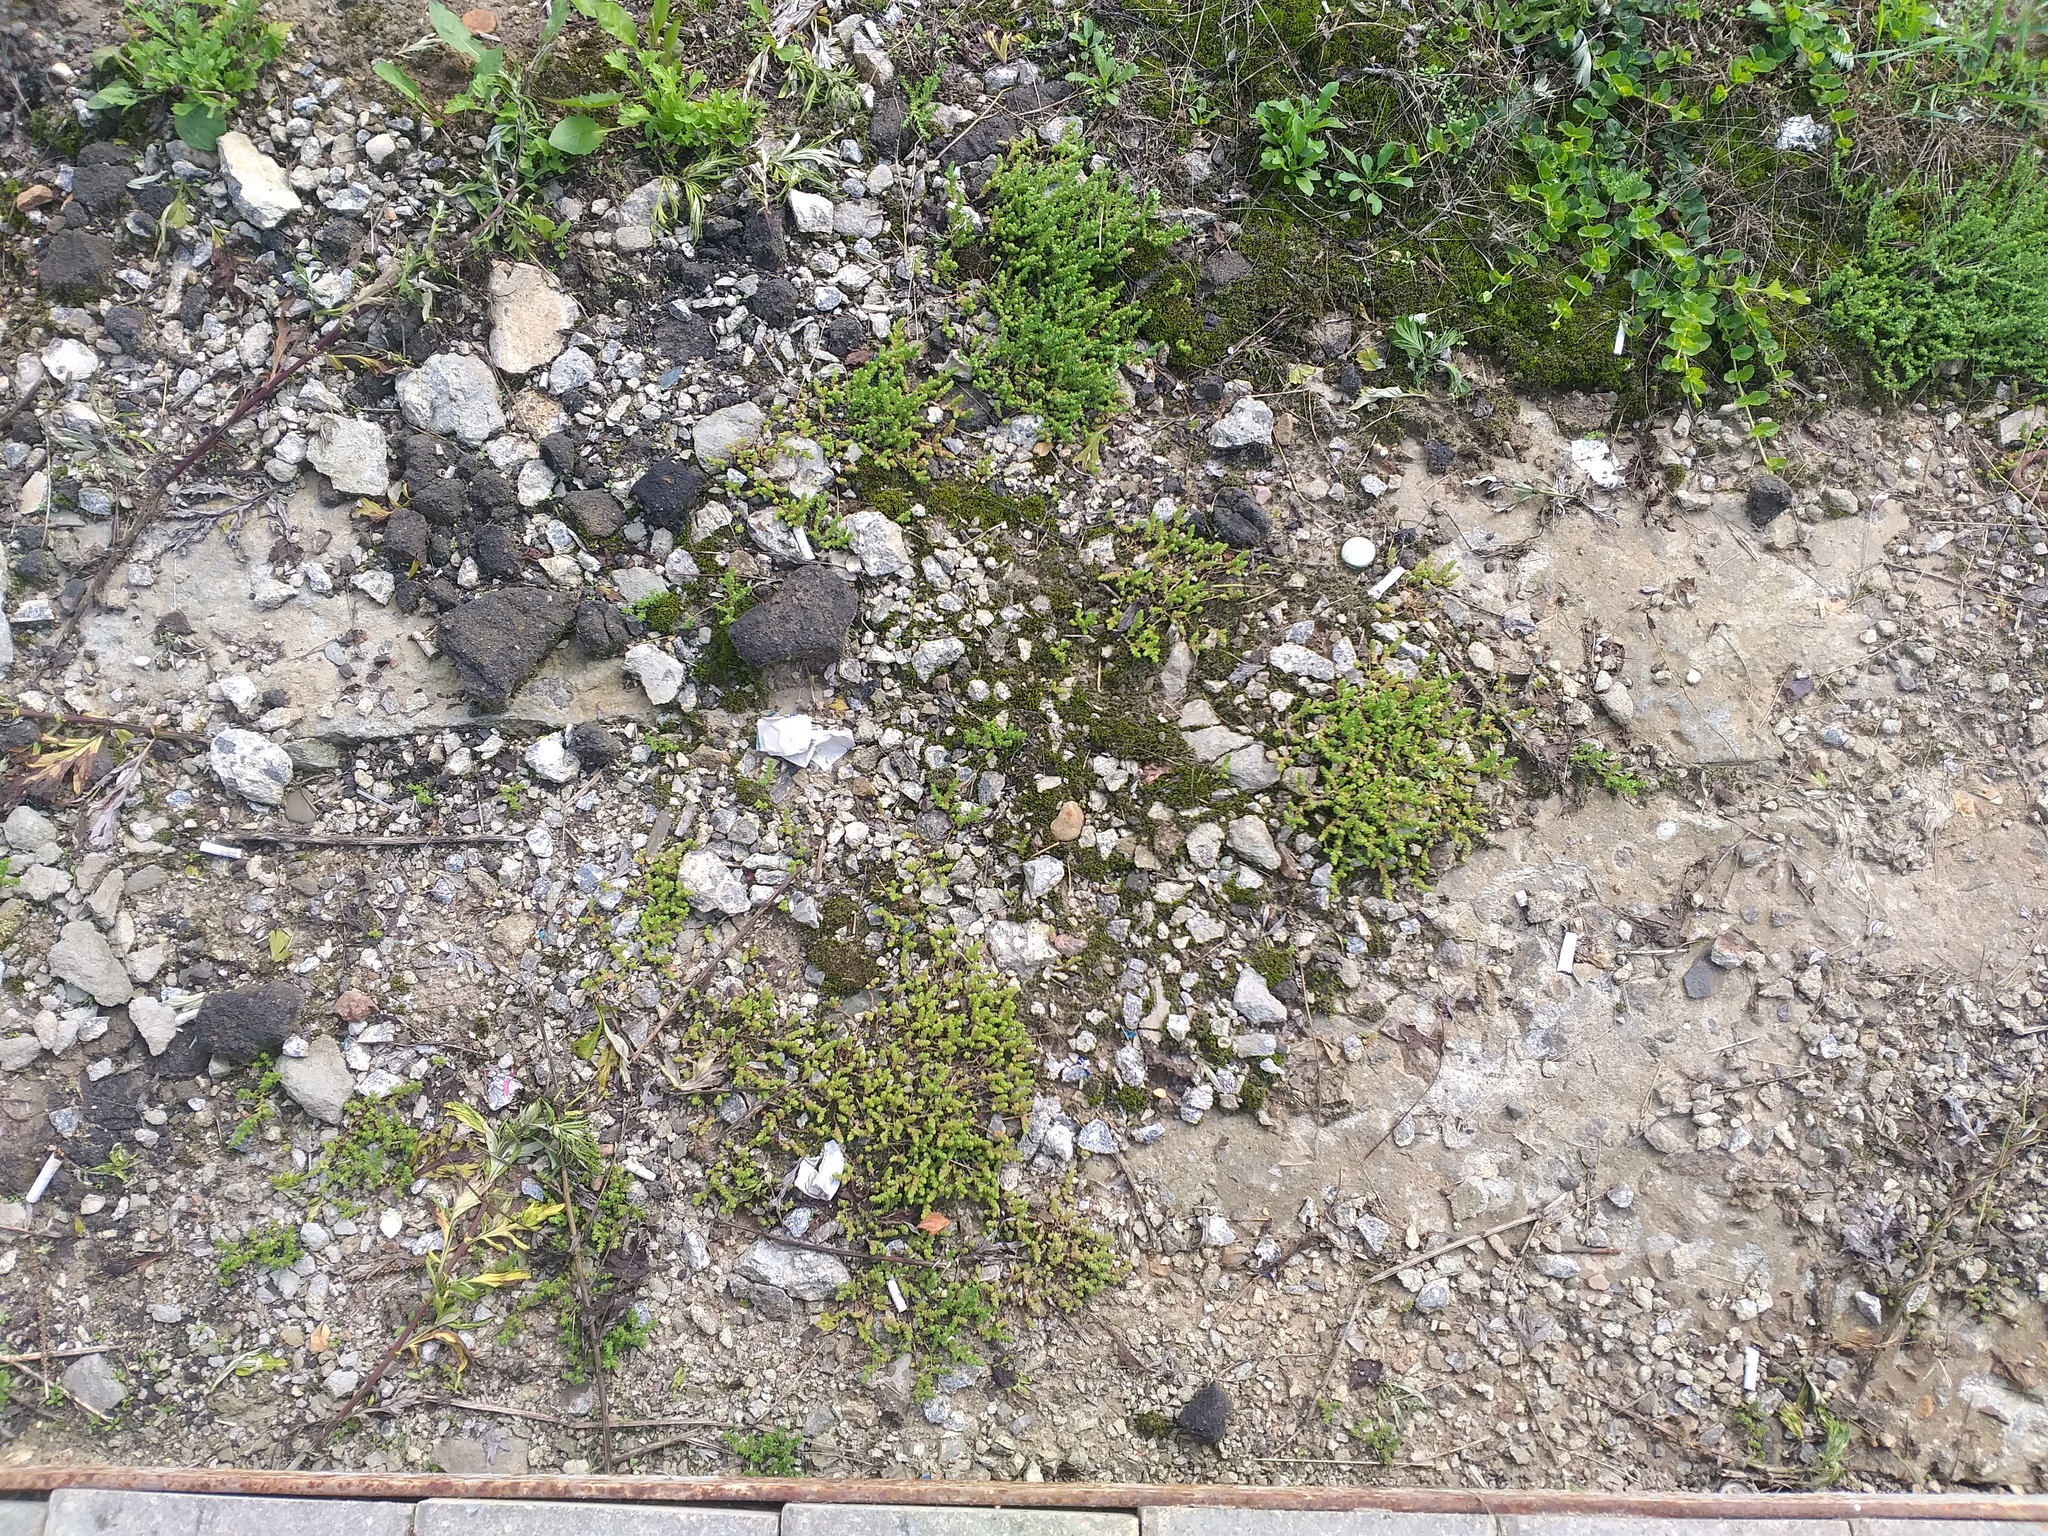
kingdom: Plantae
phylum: Tracheophyta
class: Magnoliopsida
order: Saxifragales
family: Crassulaceae
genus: Sedum
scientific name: Sedum acre
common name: Biting stonecrop
